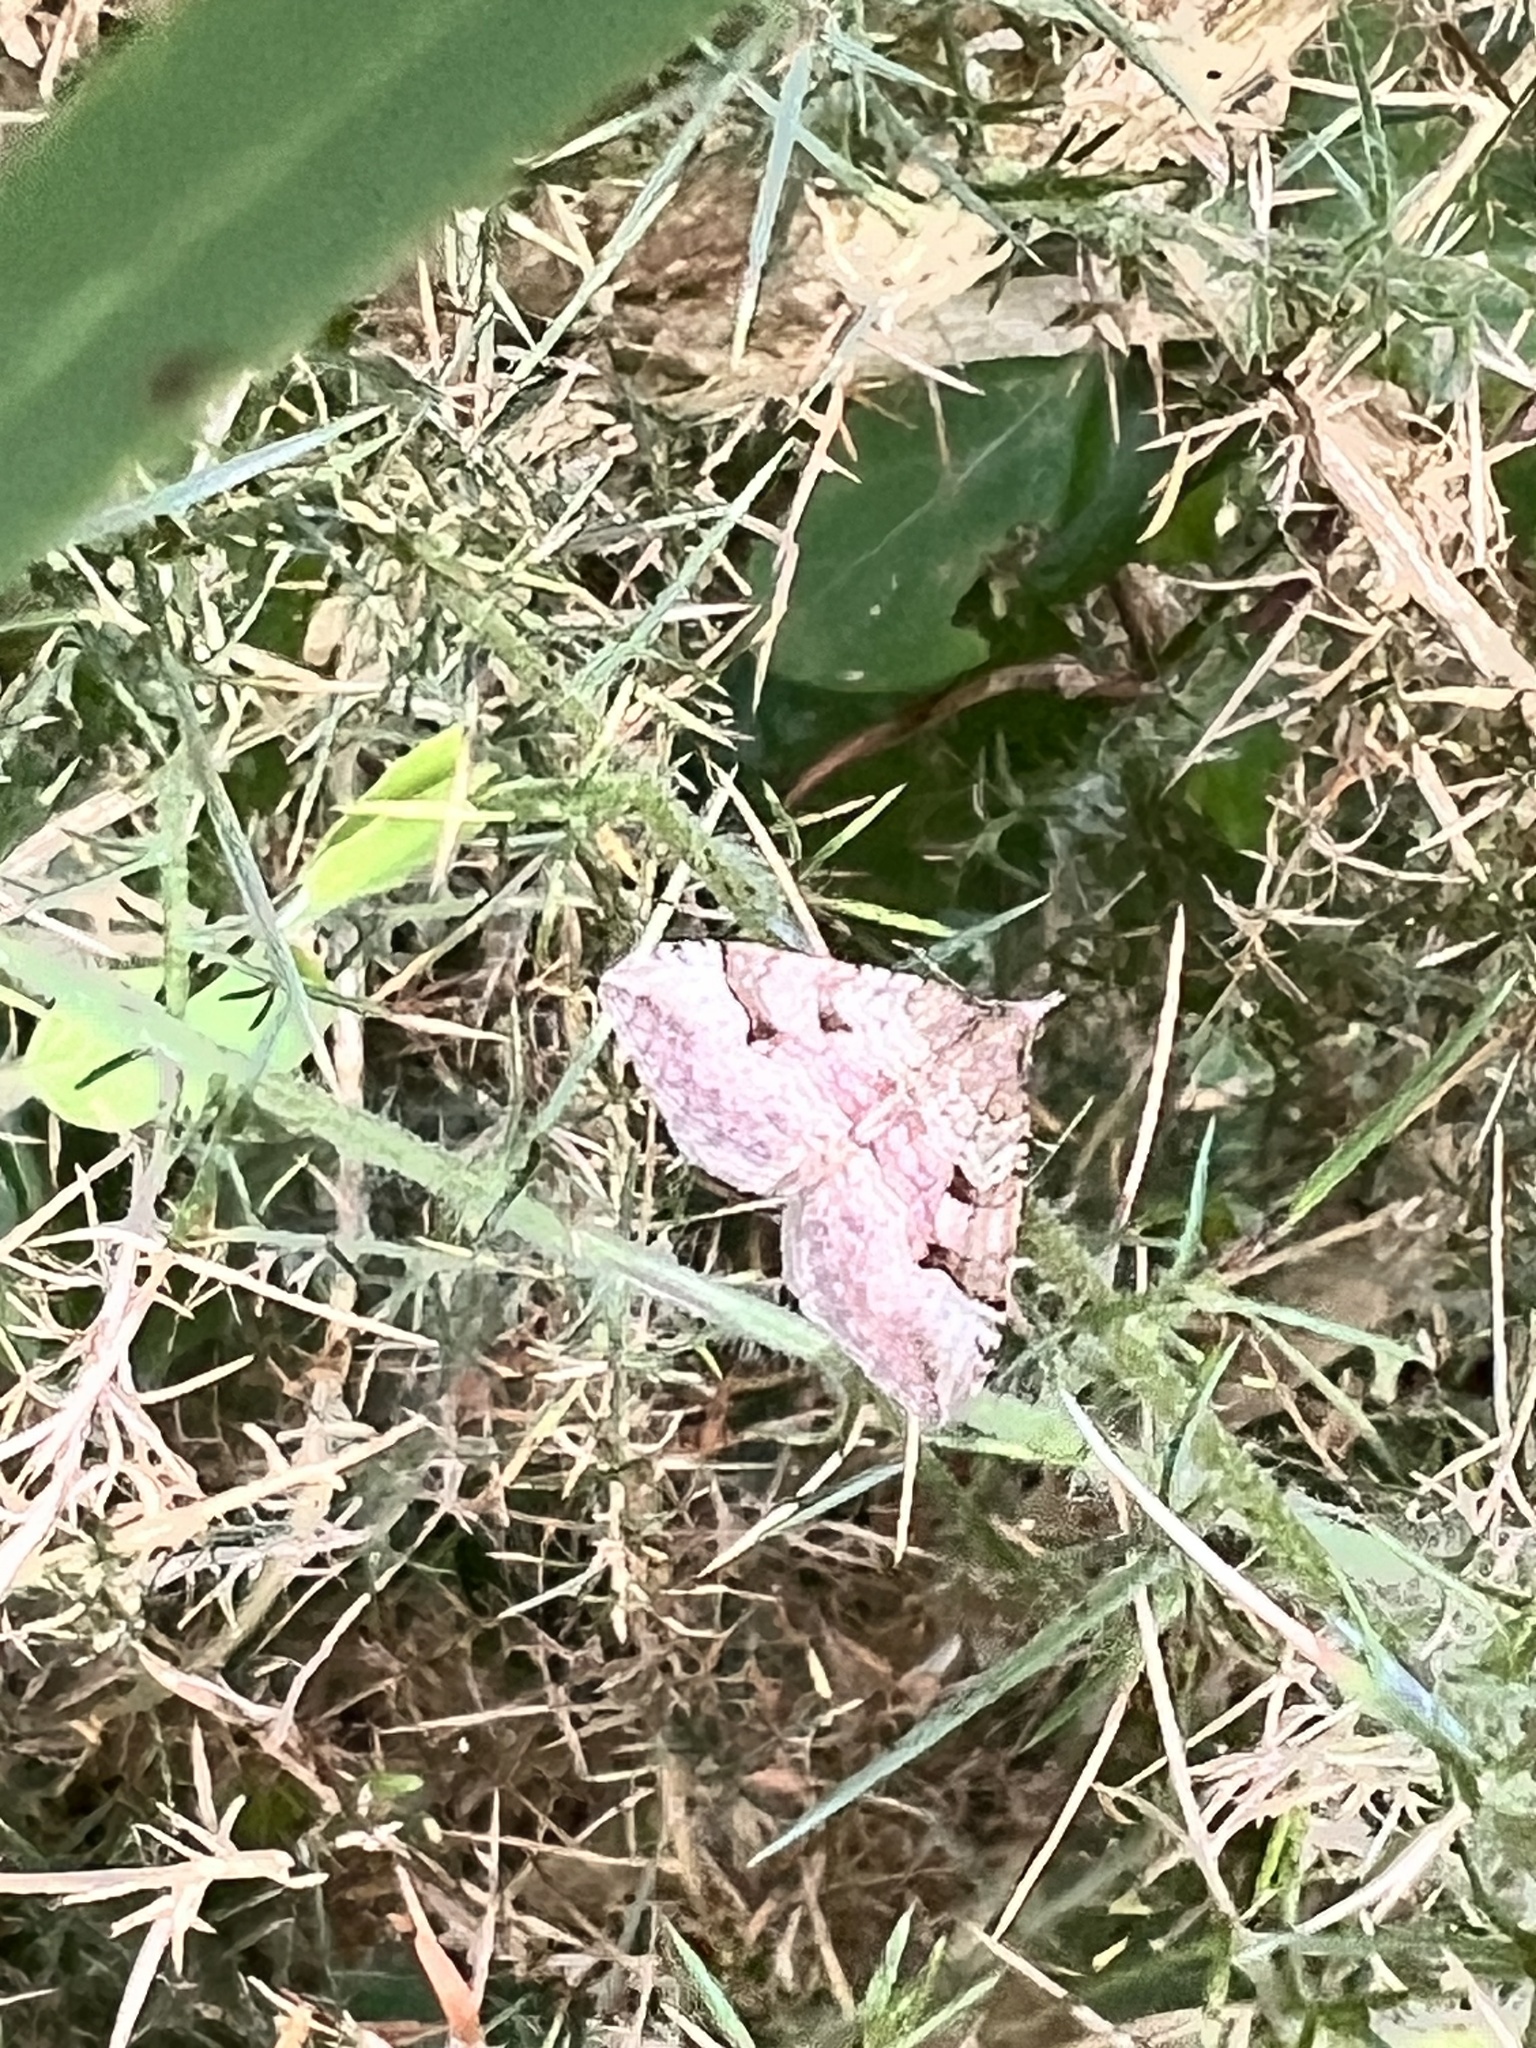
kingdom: Animalia
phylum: Arthropoda
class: Insecta
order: Lepidoptera
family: Geometridae
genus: Epyaxa
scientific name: Epyaxa rosearia
